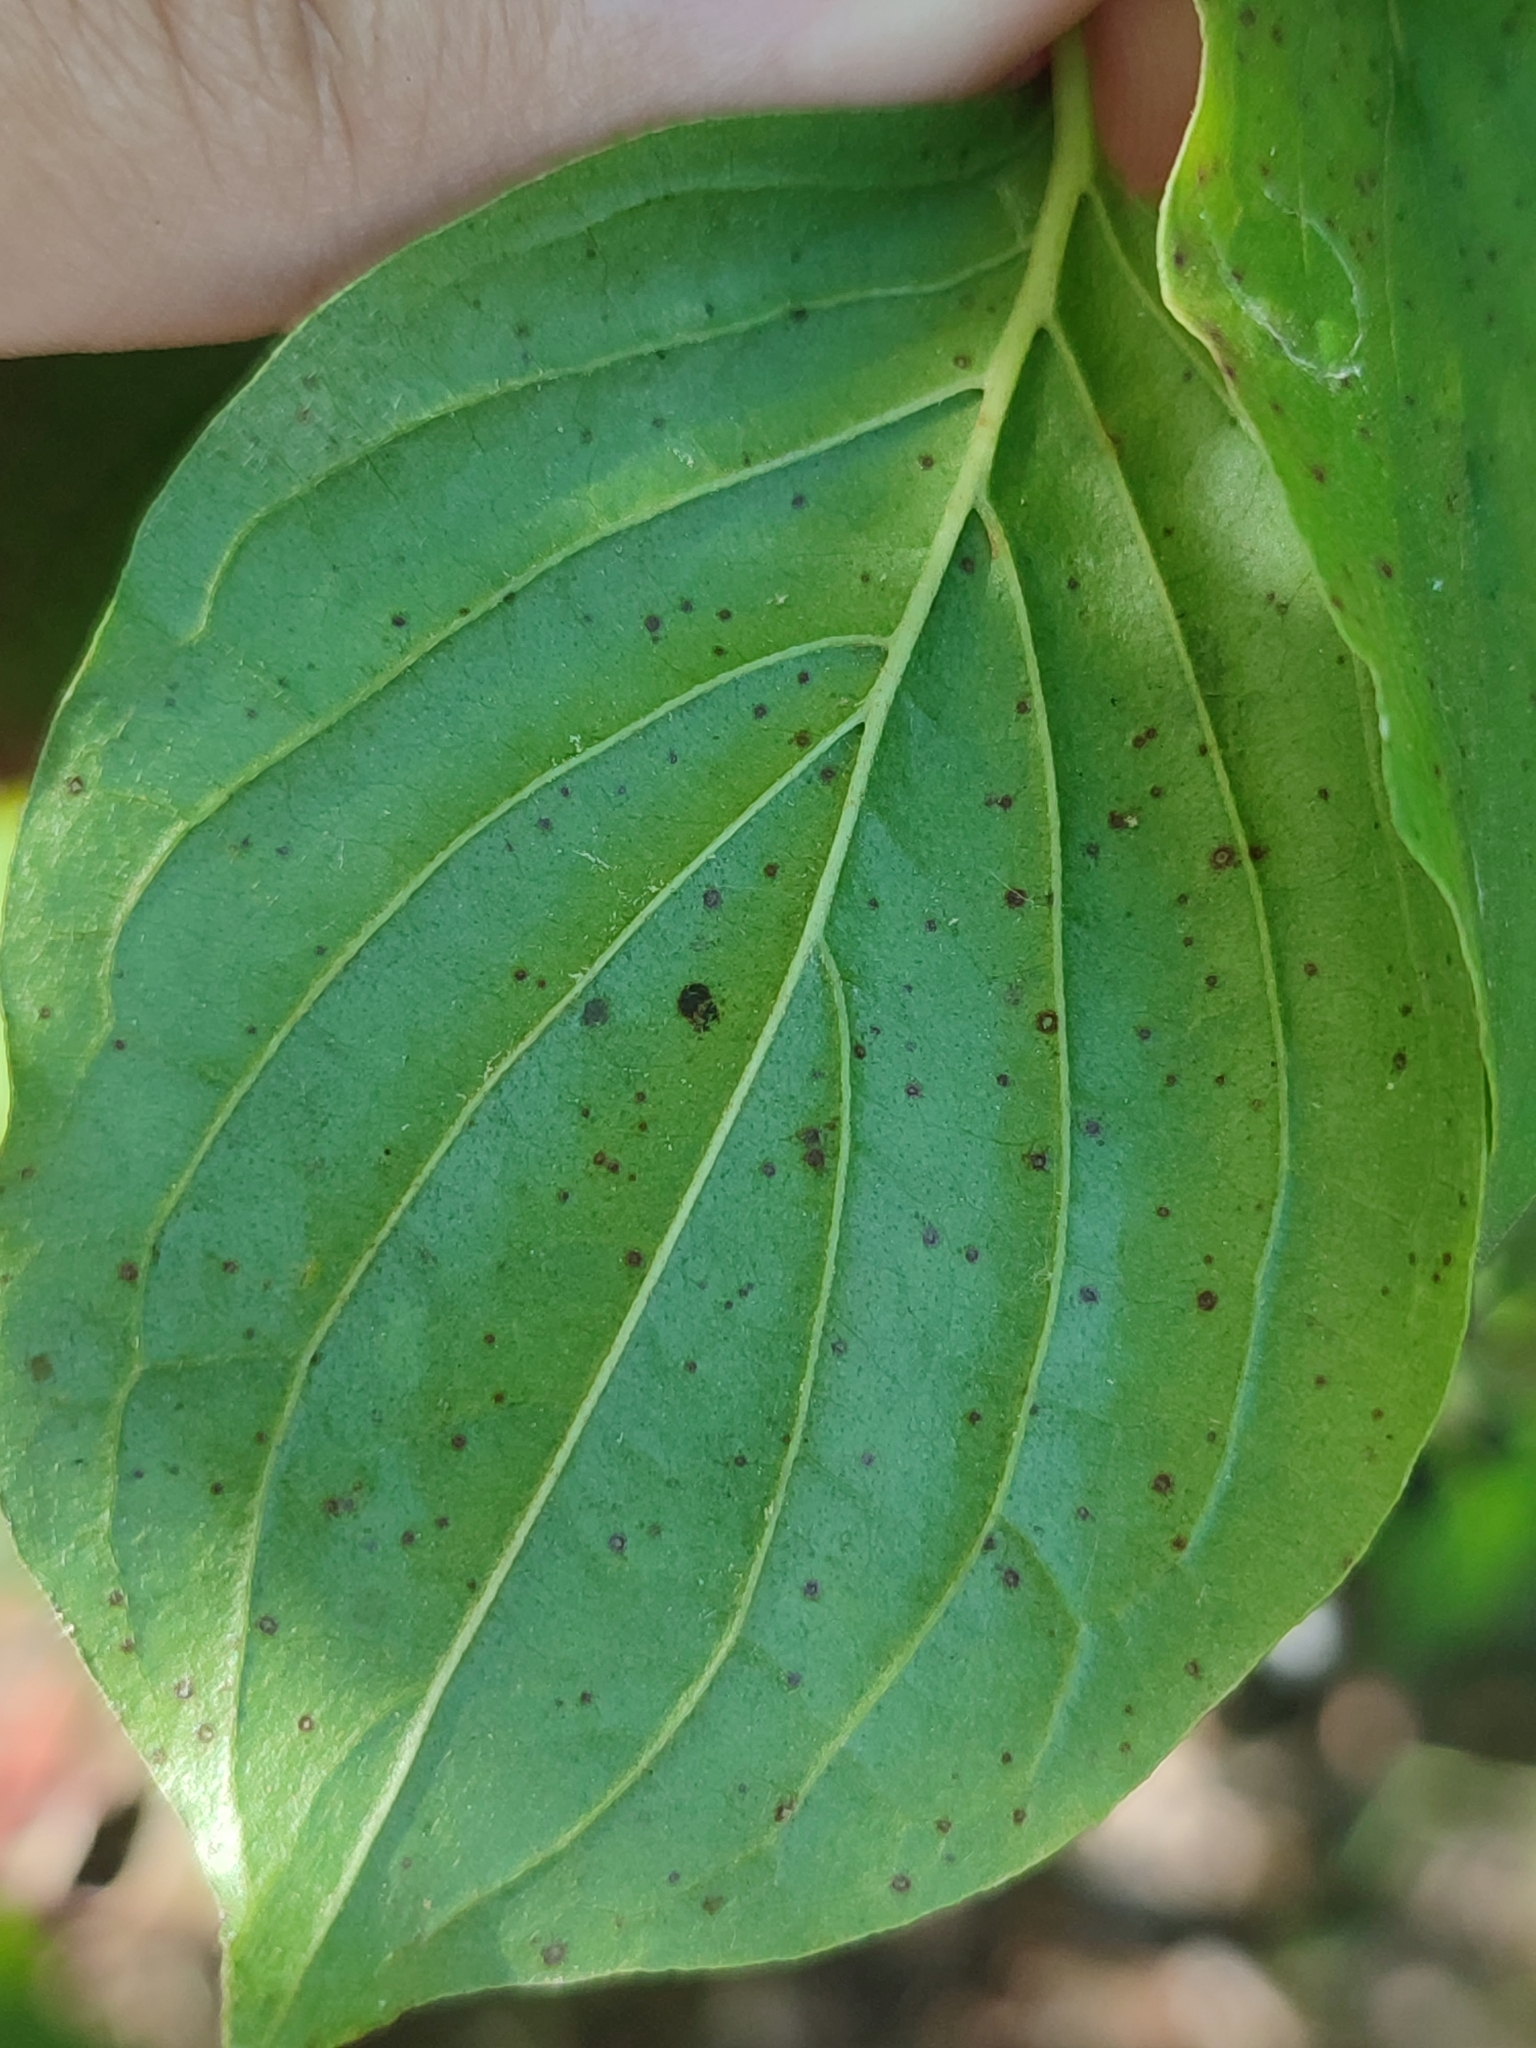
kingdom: Plantae
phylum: Tracheophyta
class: Magnoliopsida
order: Cornales
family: Cornaceae
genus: Cornus
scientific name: Cornus sanguinea
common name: Dogwood
